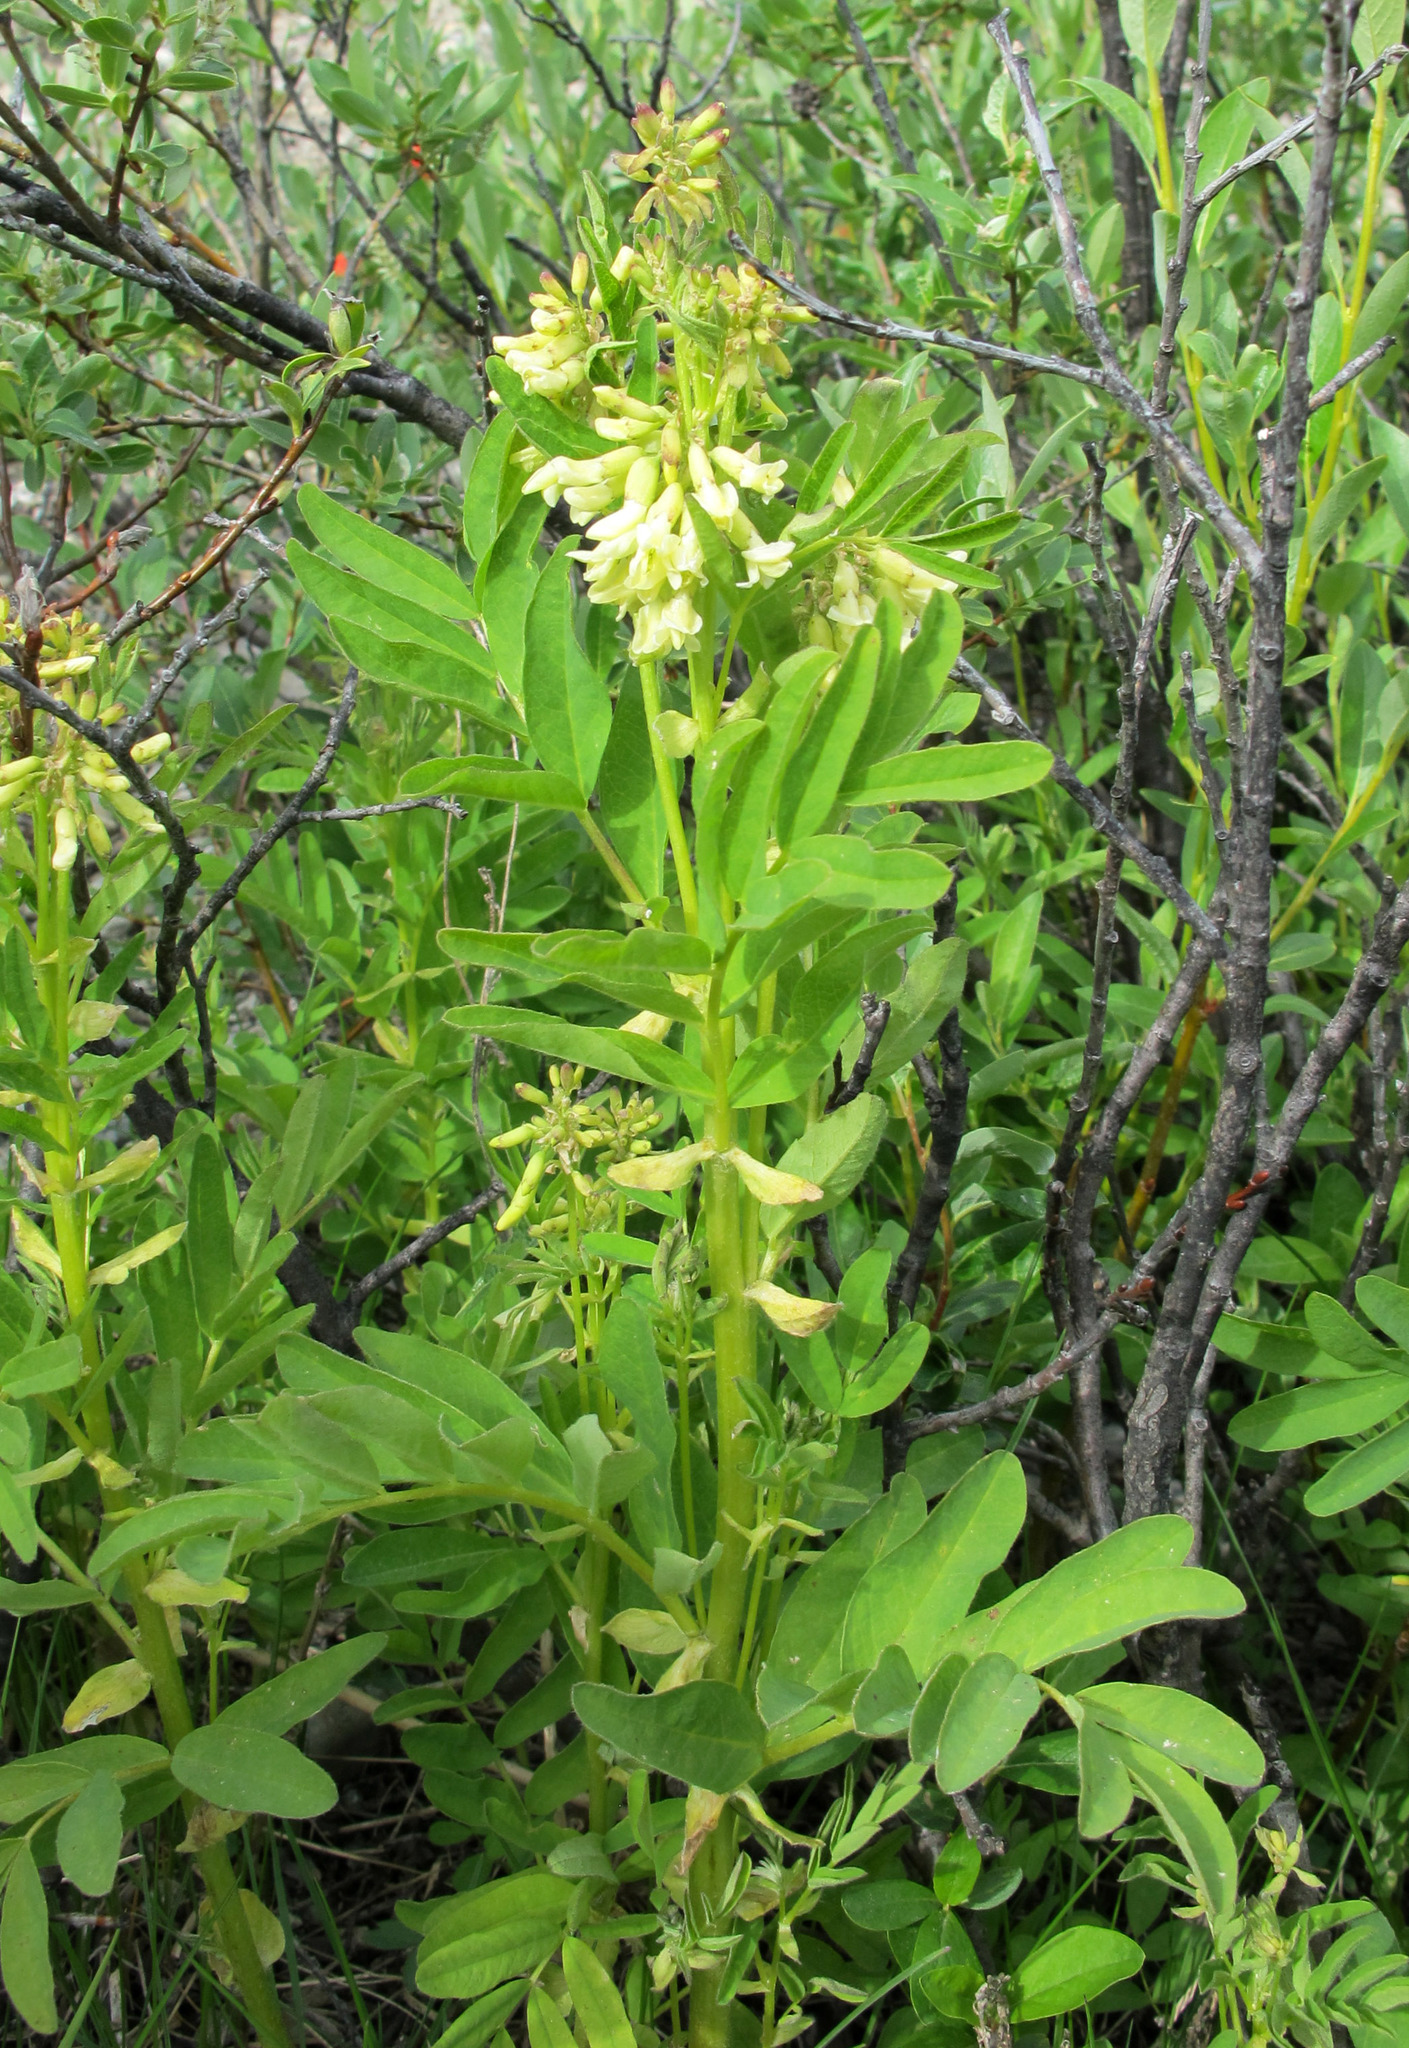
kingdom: Plantae
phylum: Tracheophyta
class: Magnoliopsida
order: Fabales
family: Fabaceae
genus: Astragalus
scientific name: Astragalus americanus
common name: American milk-vetch
